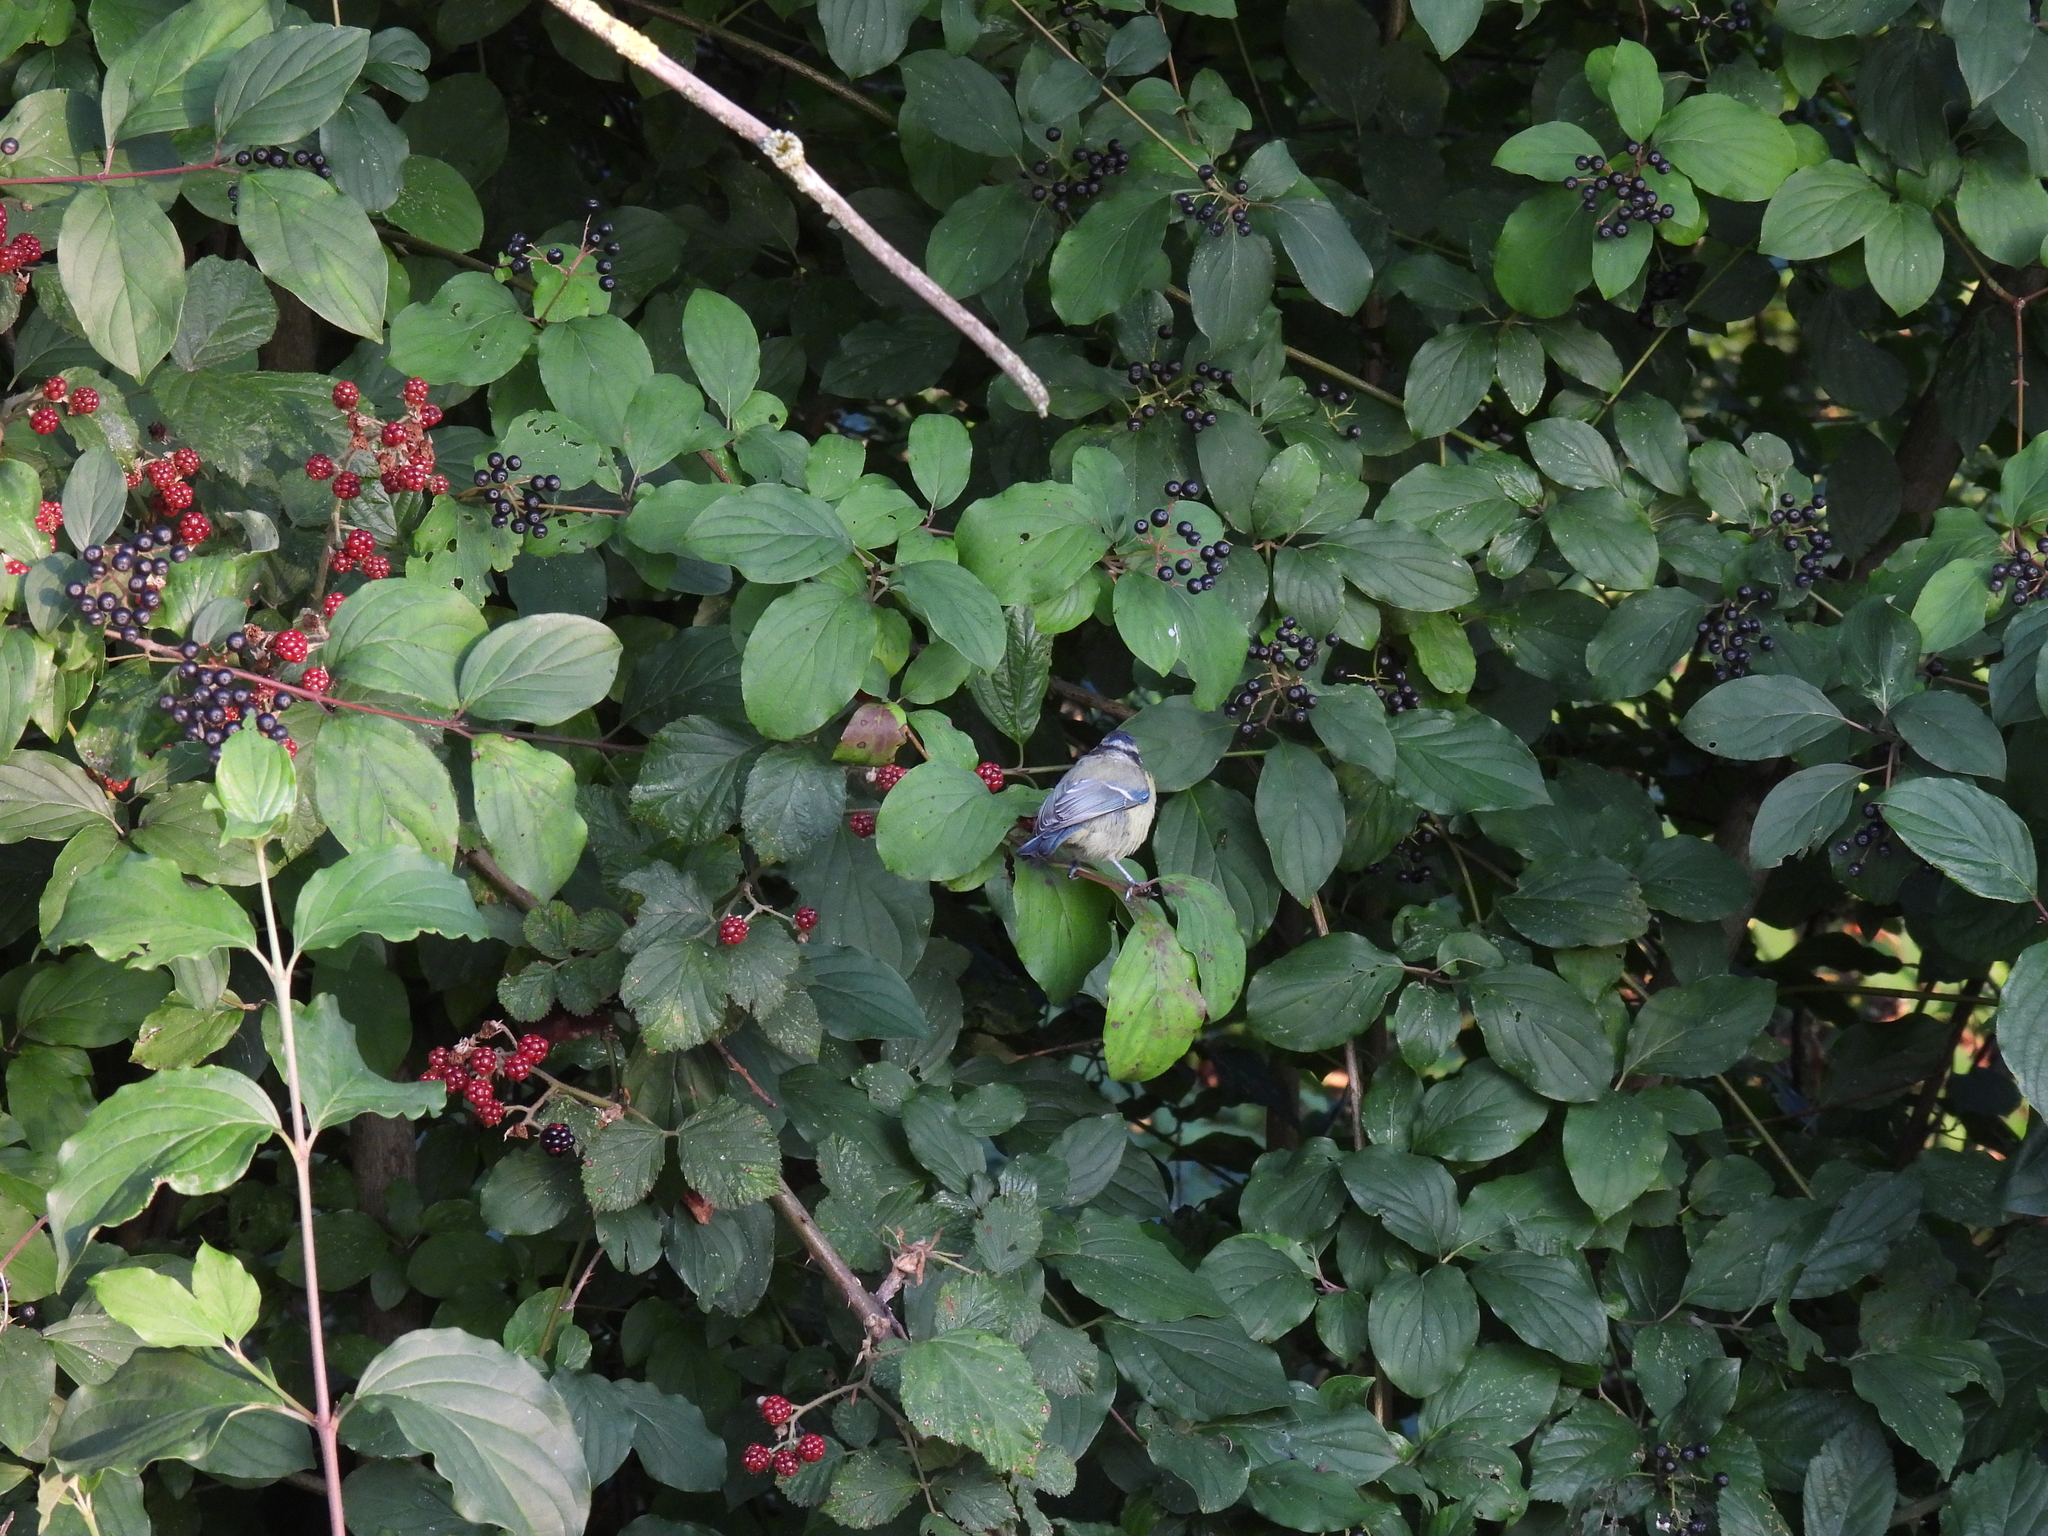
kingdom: Animalia
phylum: Chordata
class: Aves
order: Passeriformes
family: Paridae
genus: Cyanistes
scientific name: Cyanistes caeruleus
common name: Eurasian blue tit
